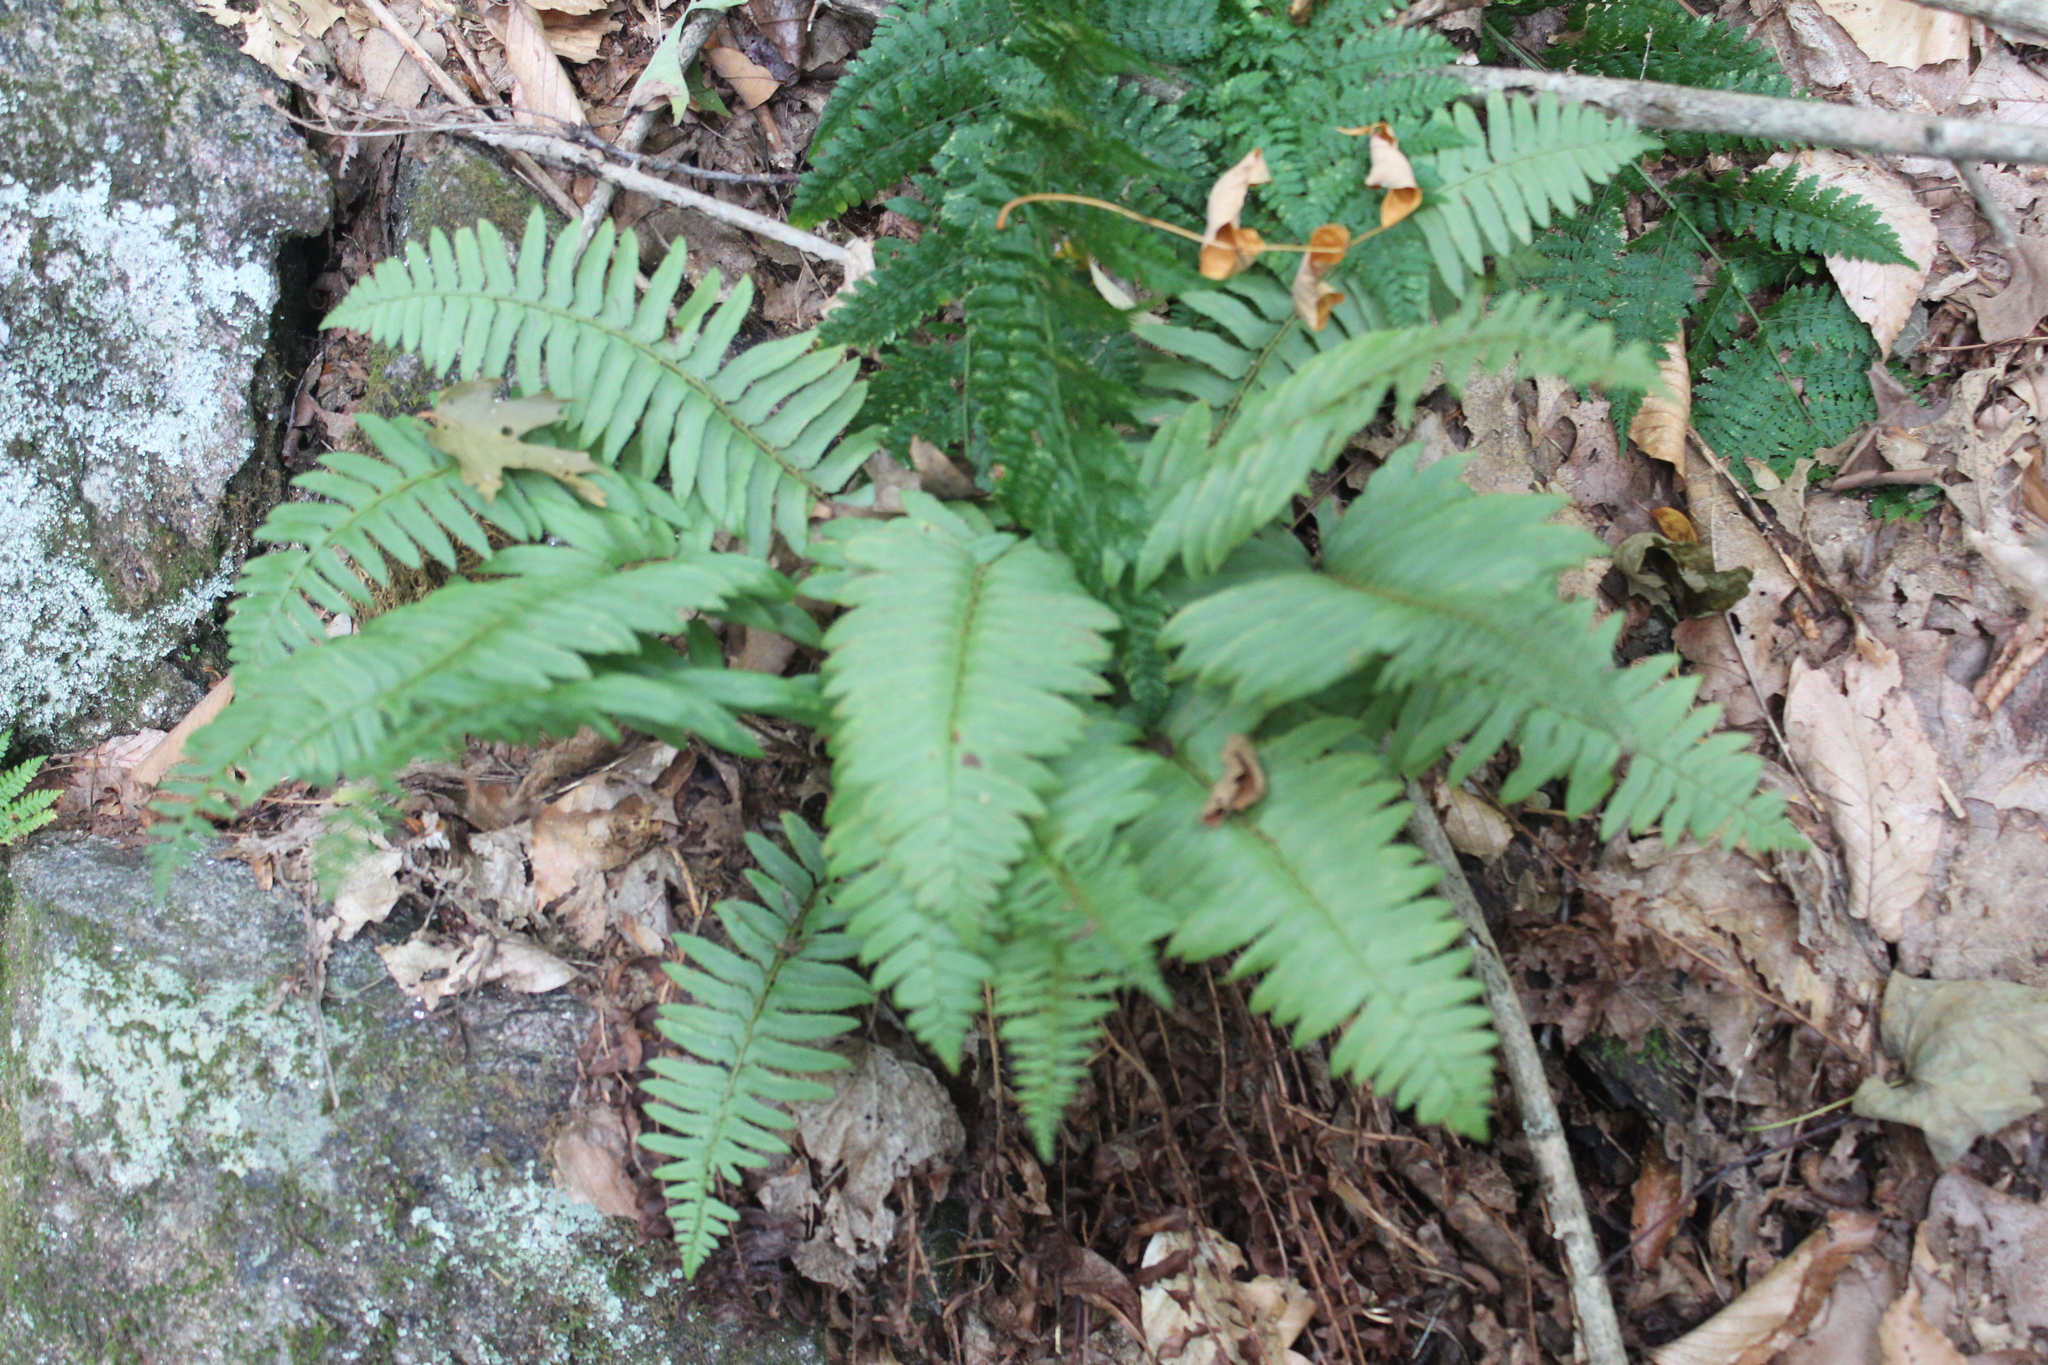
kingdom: Plantae
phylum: Tracheophyta
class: Polypodiopsida
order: Polypodiales
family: Dryopteridaceae
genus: Polystichum
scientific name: Polystichum acrostichoides
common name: Christmas fern
